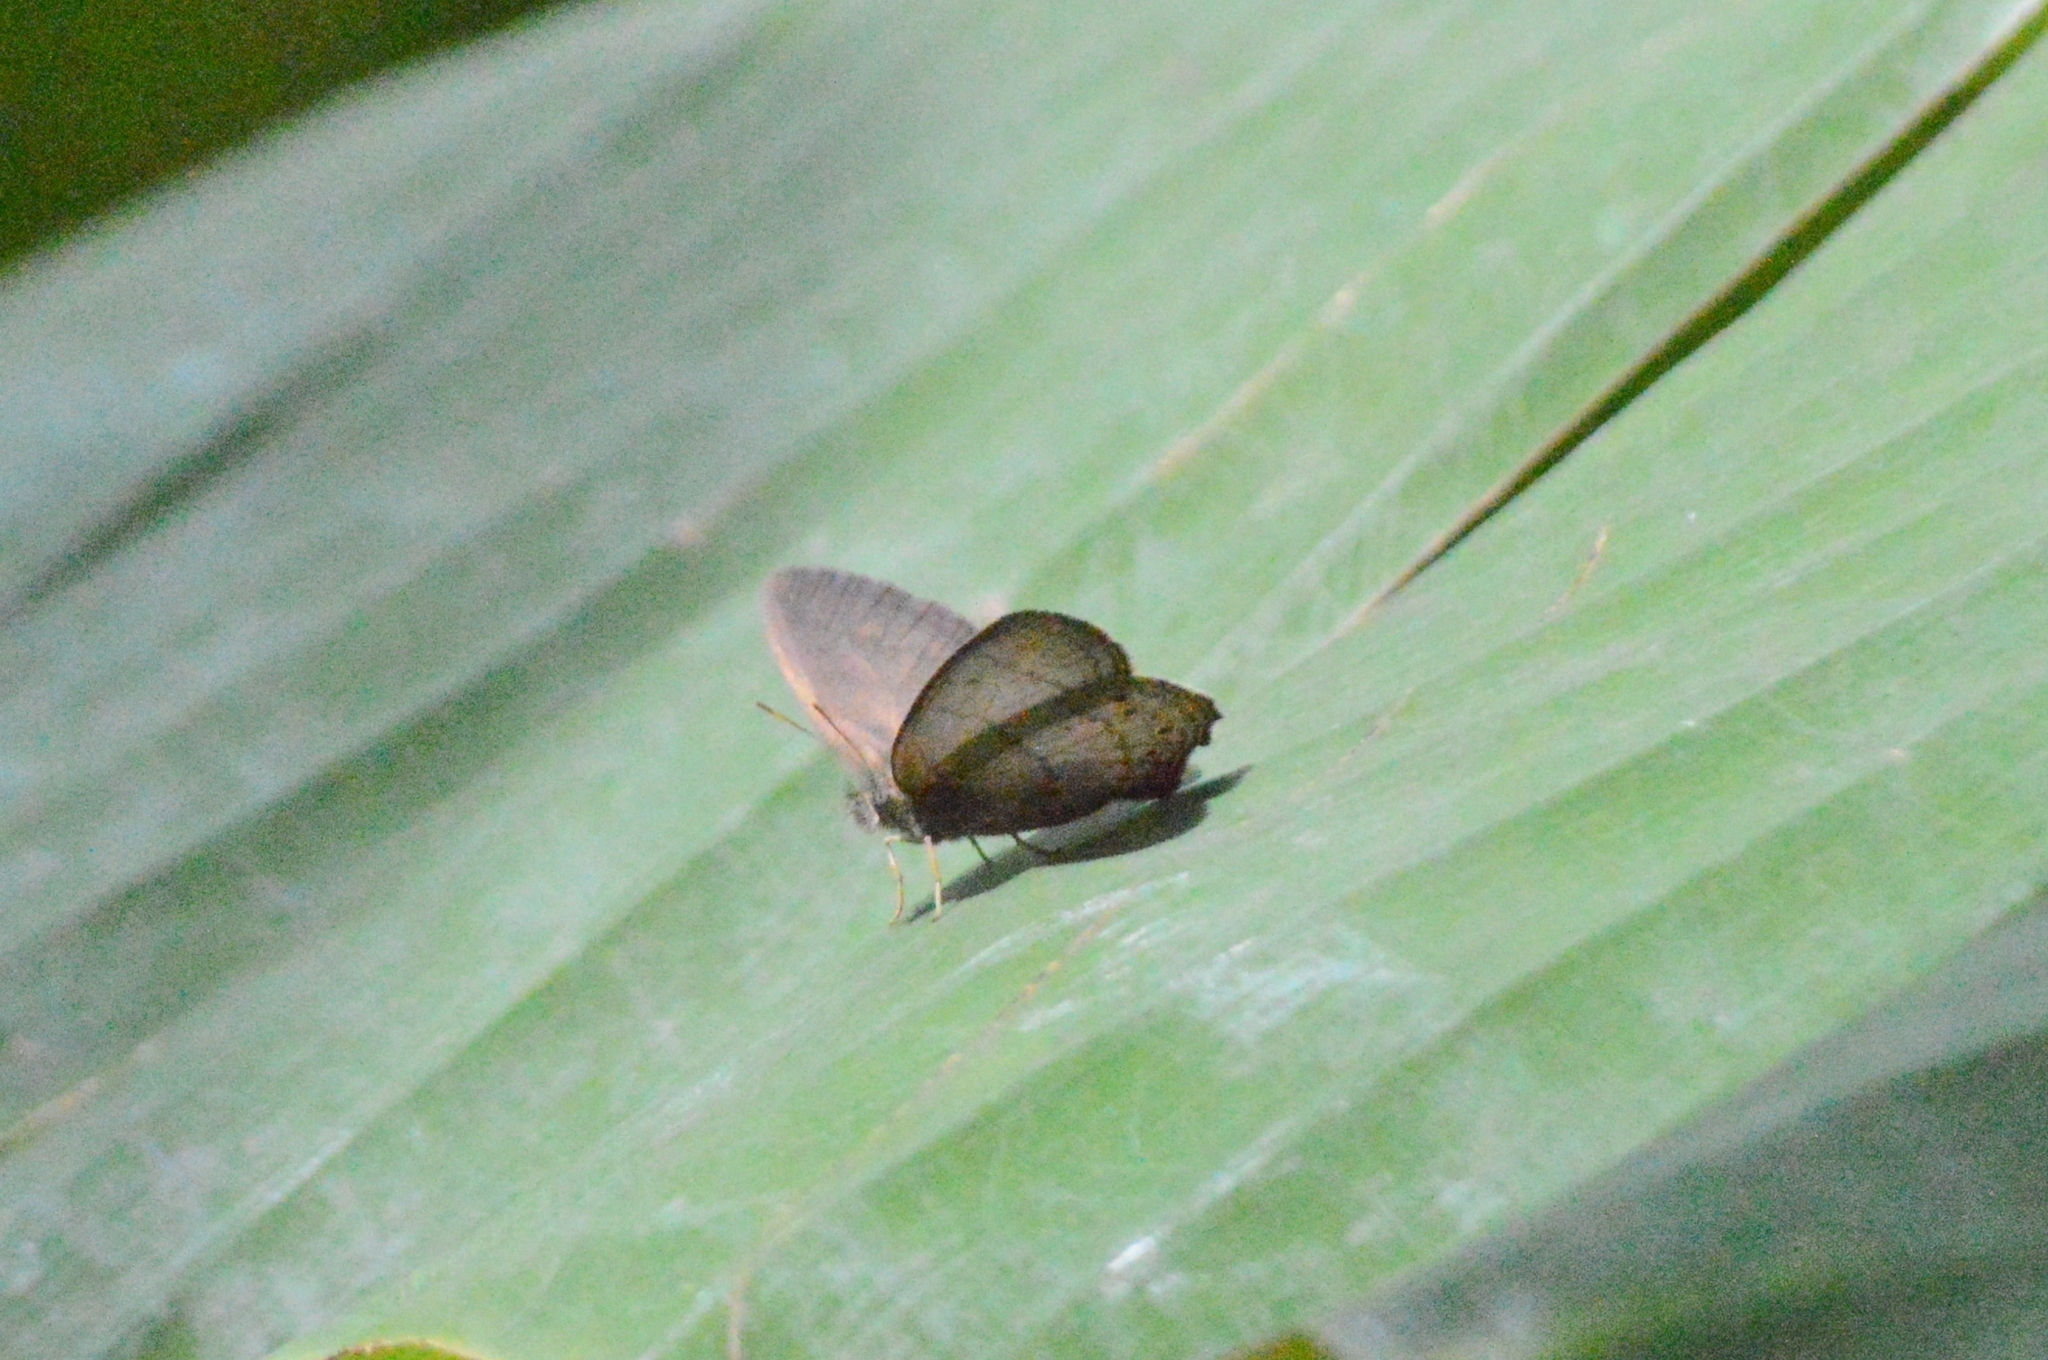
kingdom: Animalia
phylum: Arthropoda
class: Insecta
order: Lepidoptera
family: Nymphalidae
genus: Euptychiina
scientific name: Euptychiina
